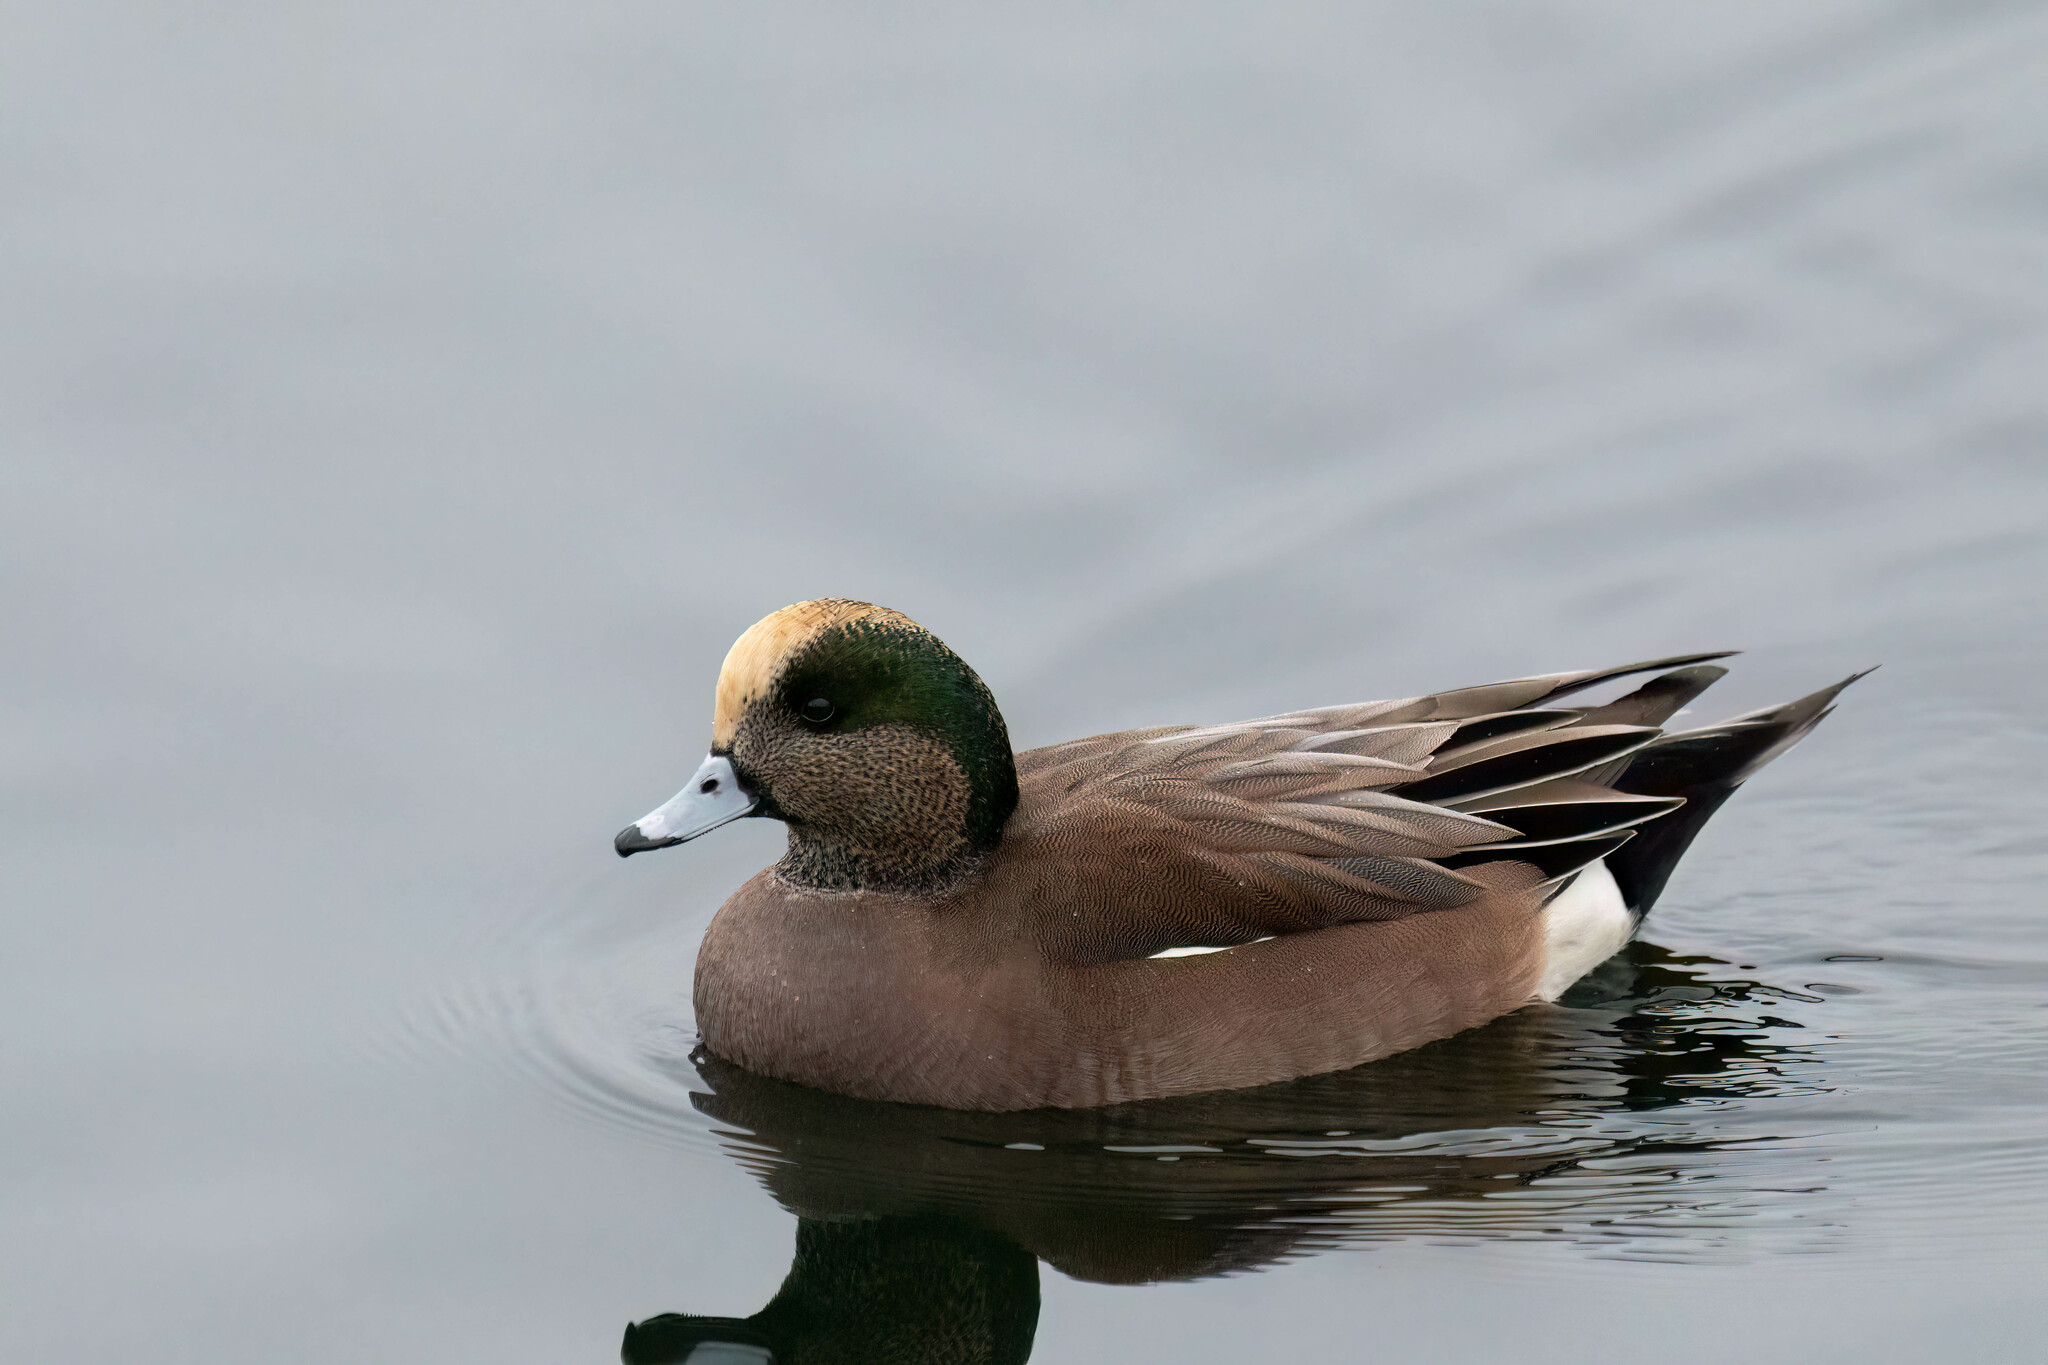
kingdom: Animalia
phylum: Chordata
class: Aves
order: Anseriformes
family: Anatidae
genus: Mareca
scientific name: Mareca americana
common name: American wigeon
